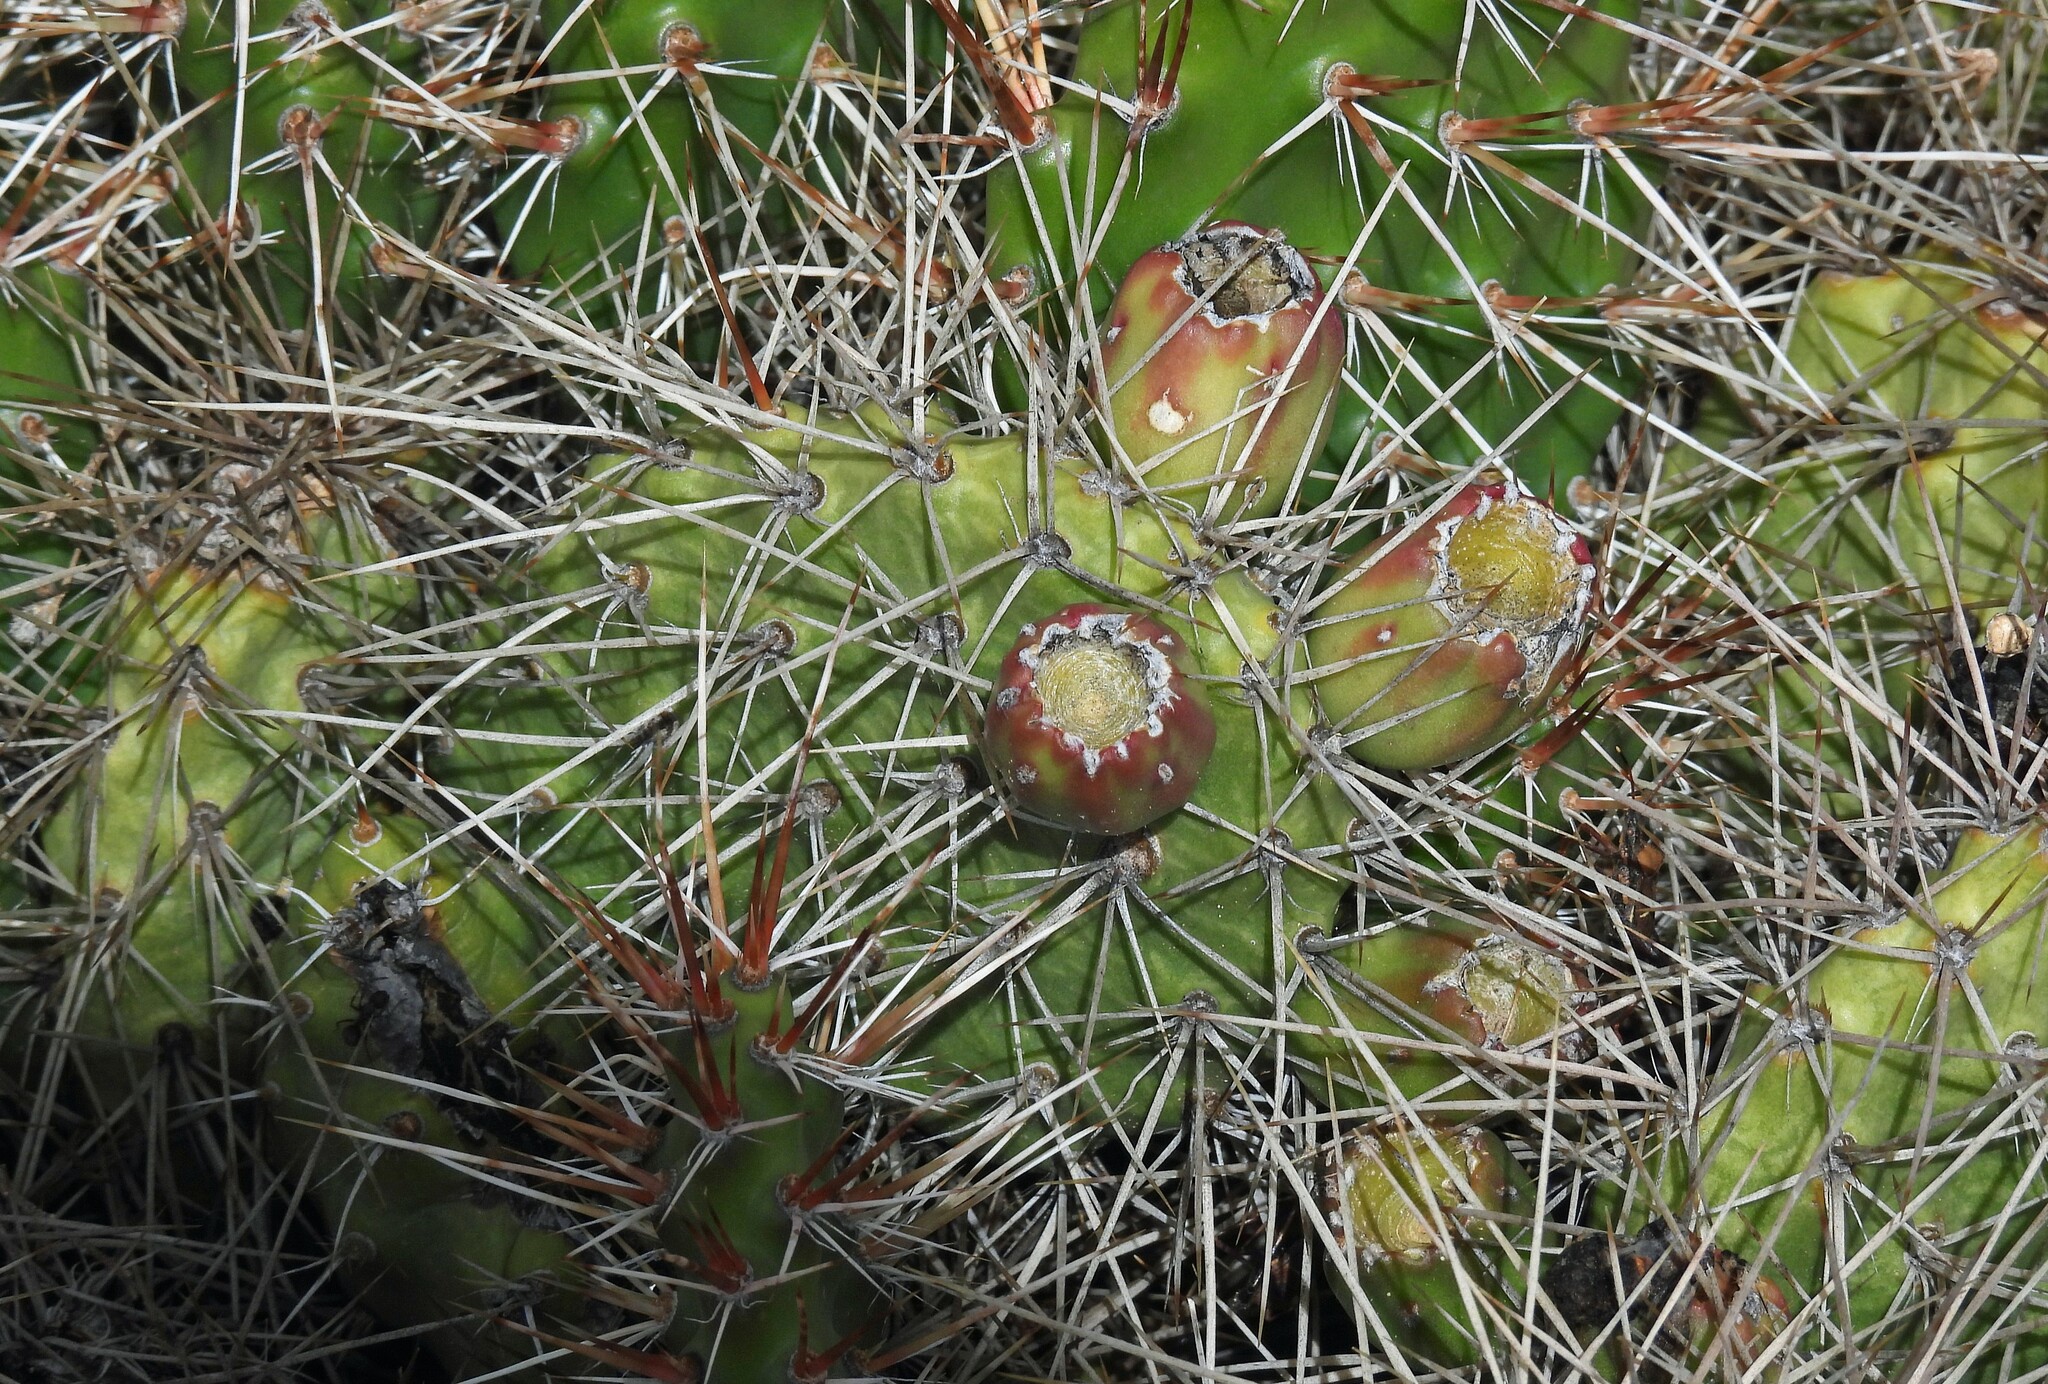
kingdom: Plantae
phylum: Tracheophyta
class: Magnoliopsida
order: Caryophyllales
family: Cactaceae
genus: Opuntia
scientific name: Opuntia sulphurea
